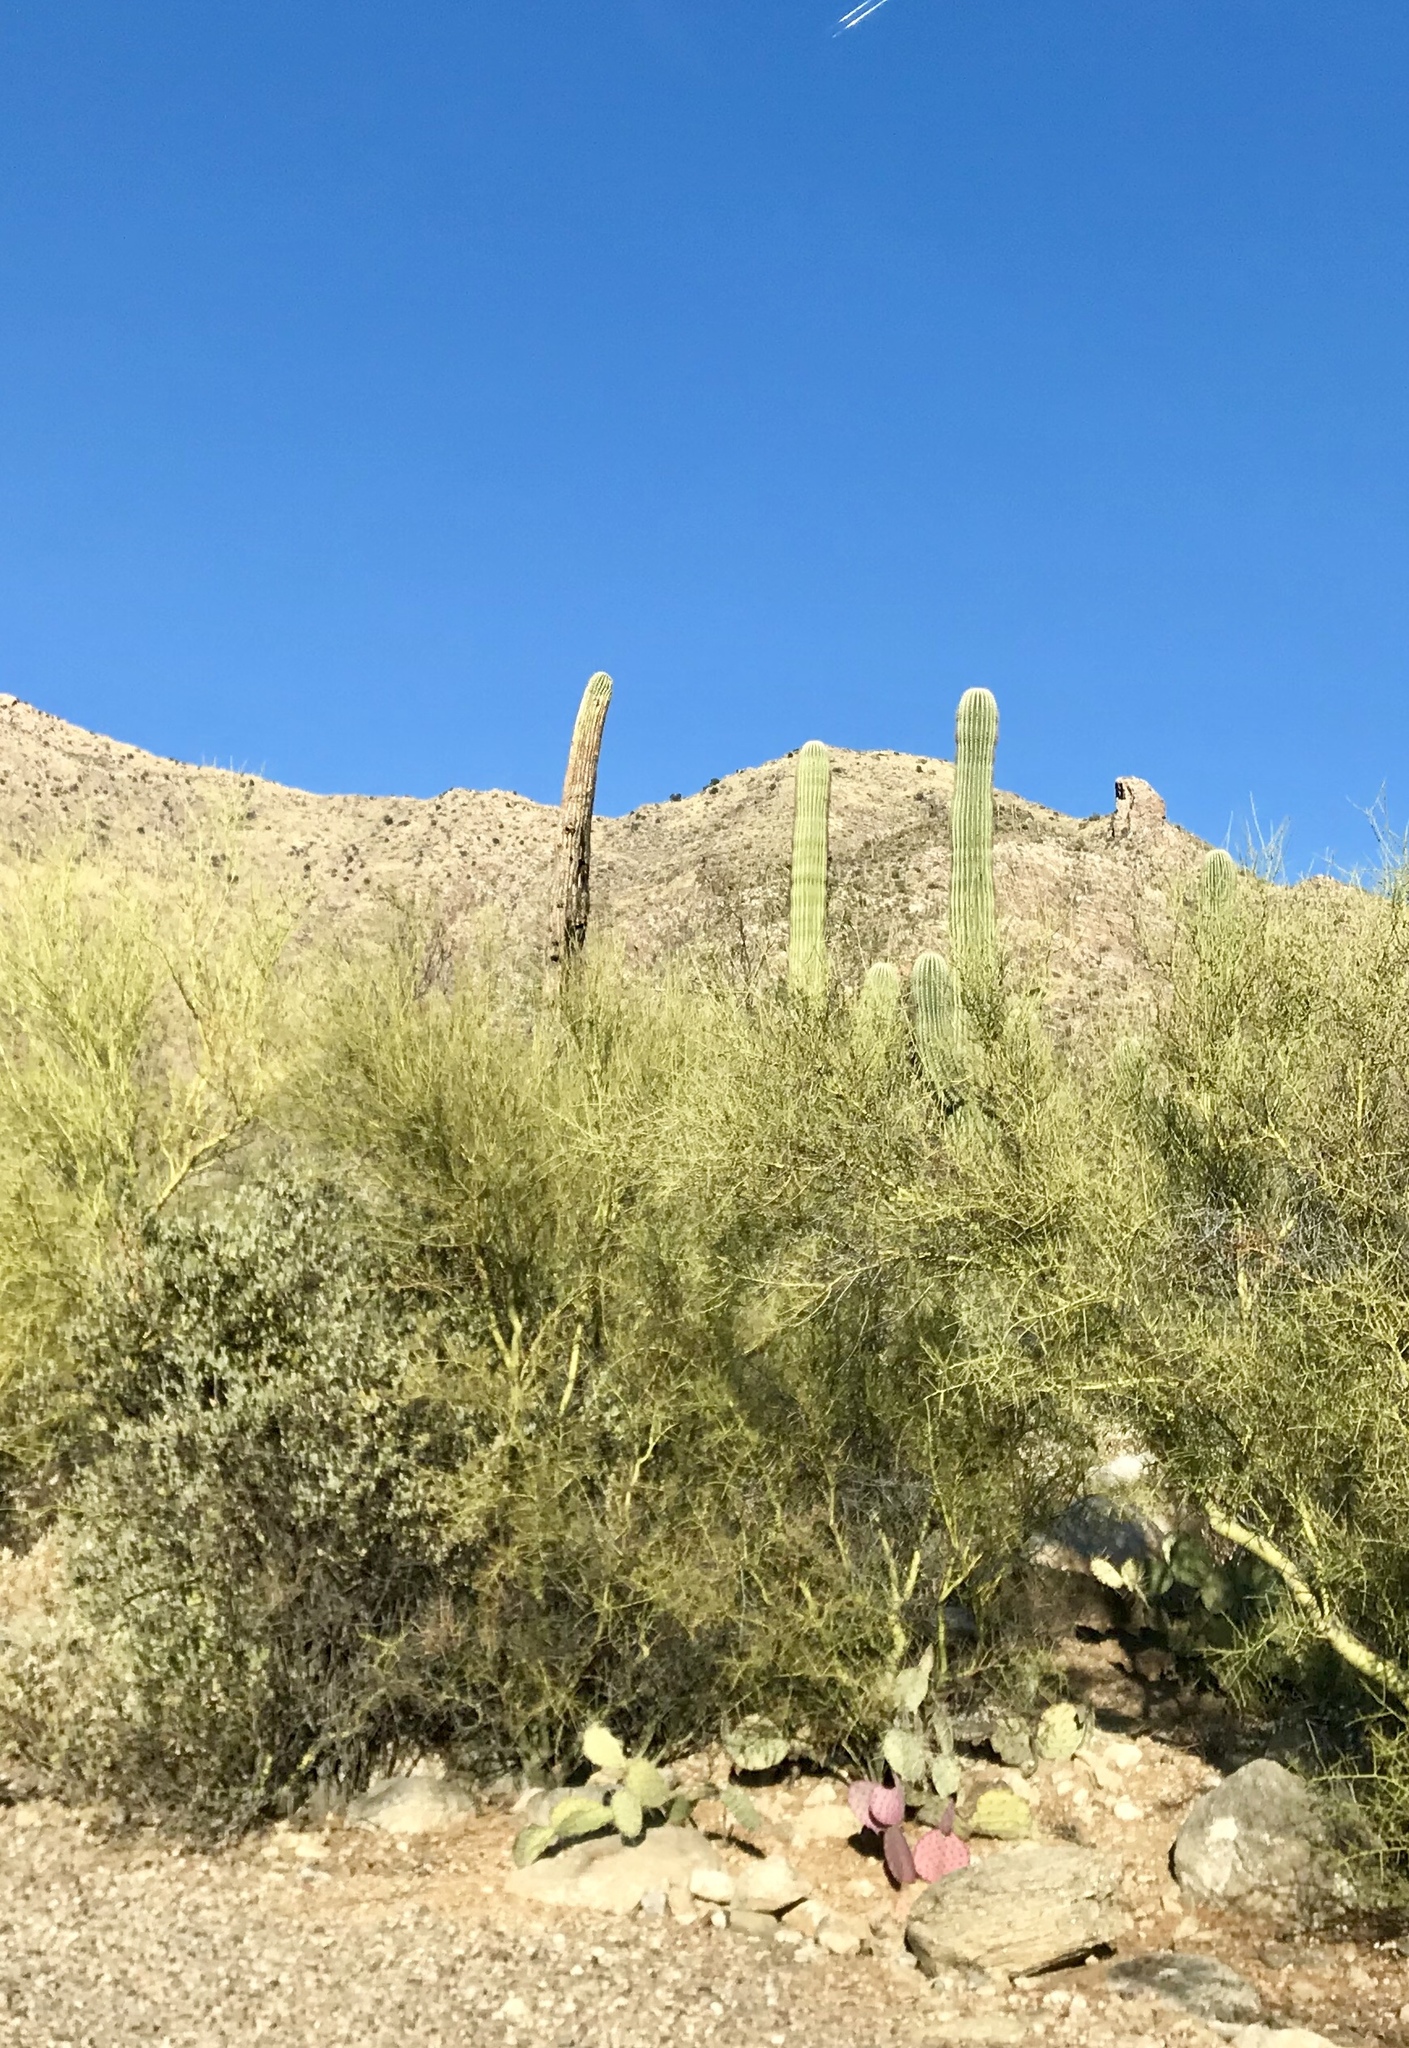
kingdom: Plantae
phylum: Tracheophyta
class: Magnoliopsida
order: Fabales
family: Fabaceae
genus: Parkinsonia
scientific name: Parkinsonia microphylla
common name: Yellow paloverde
